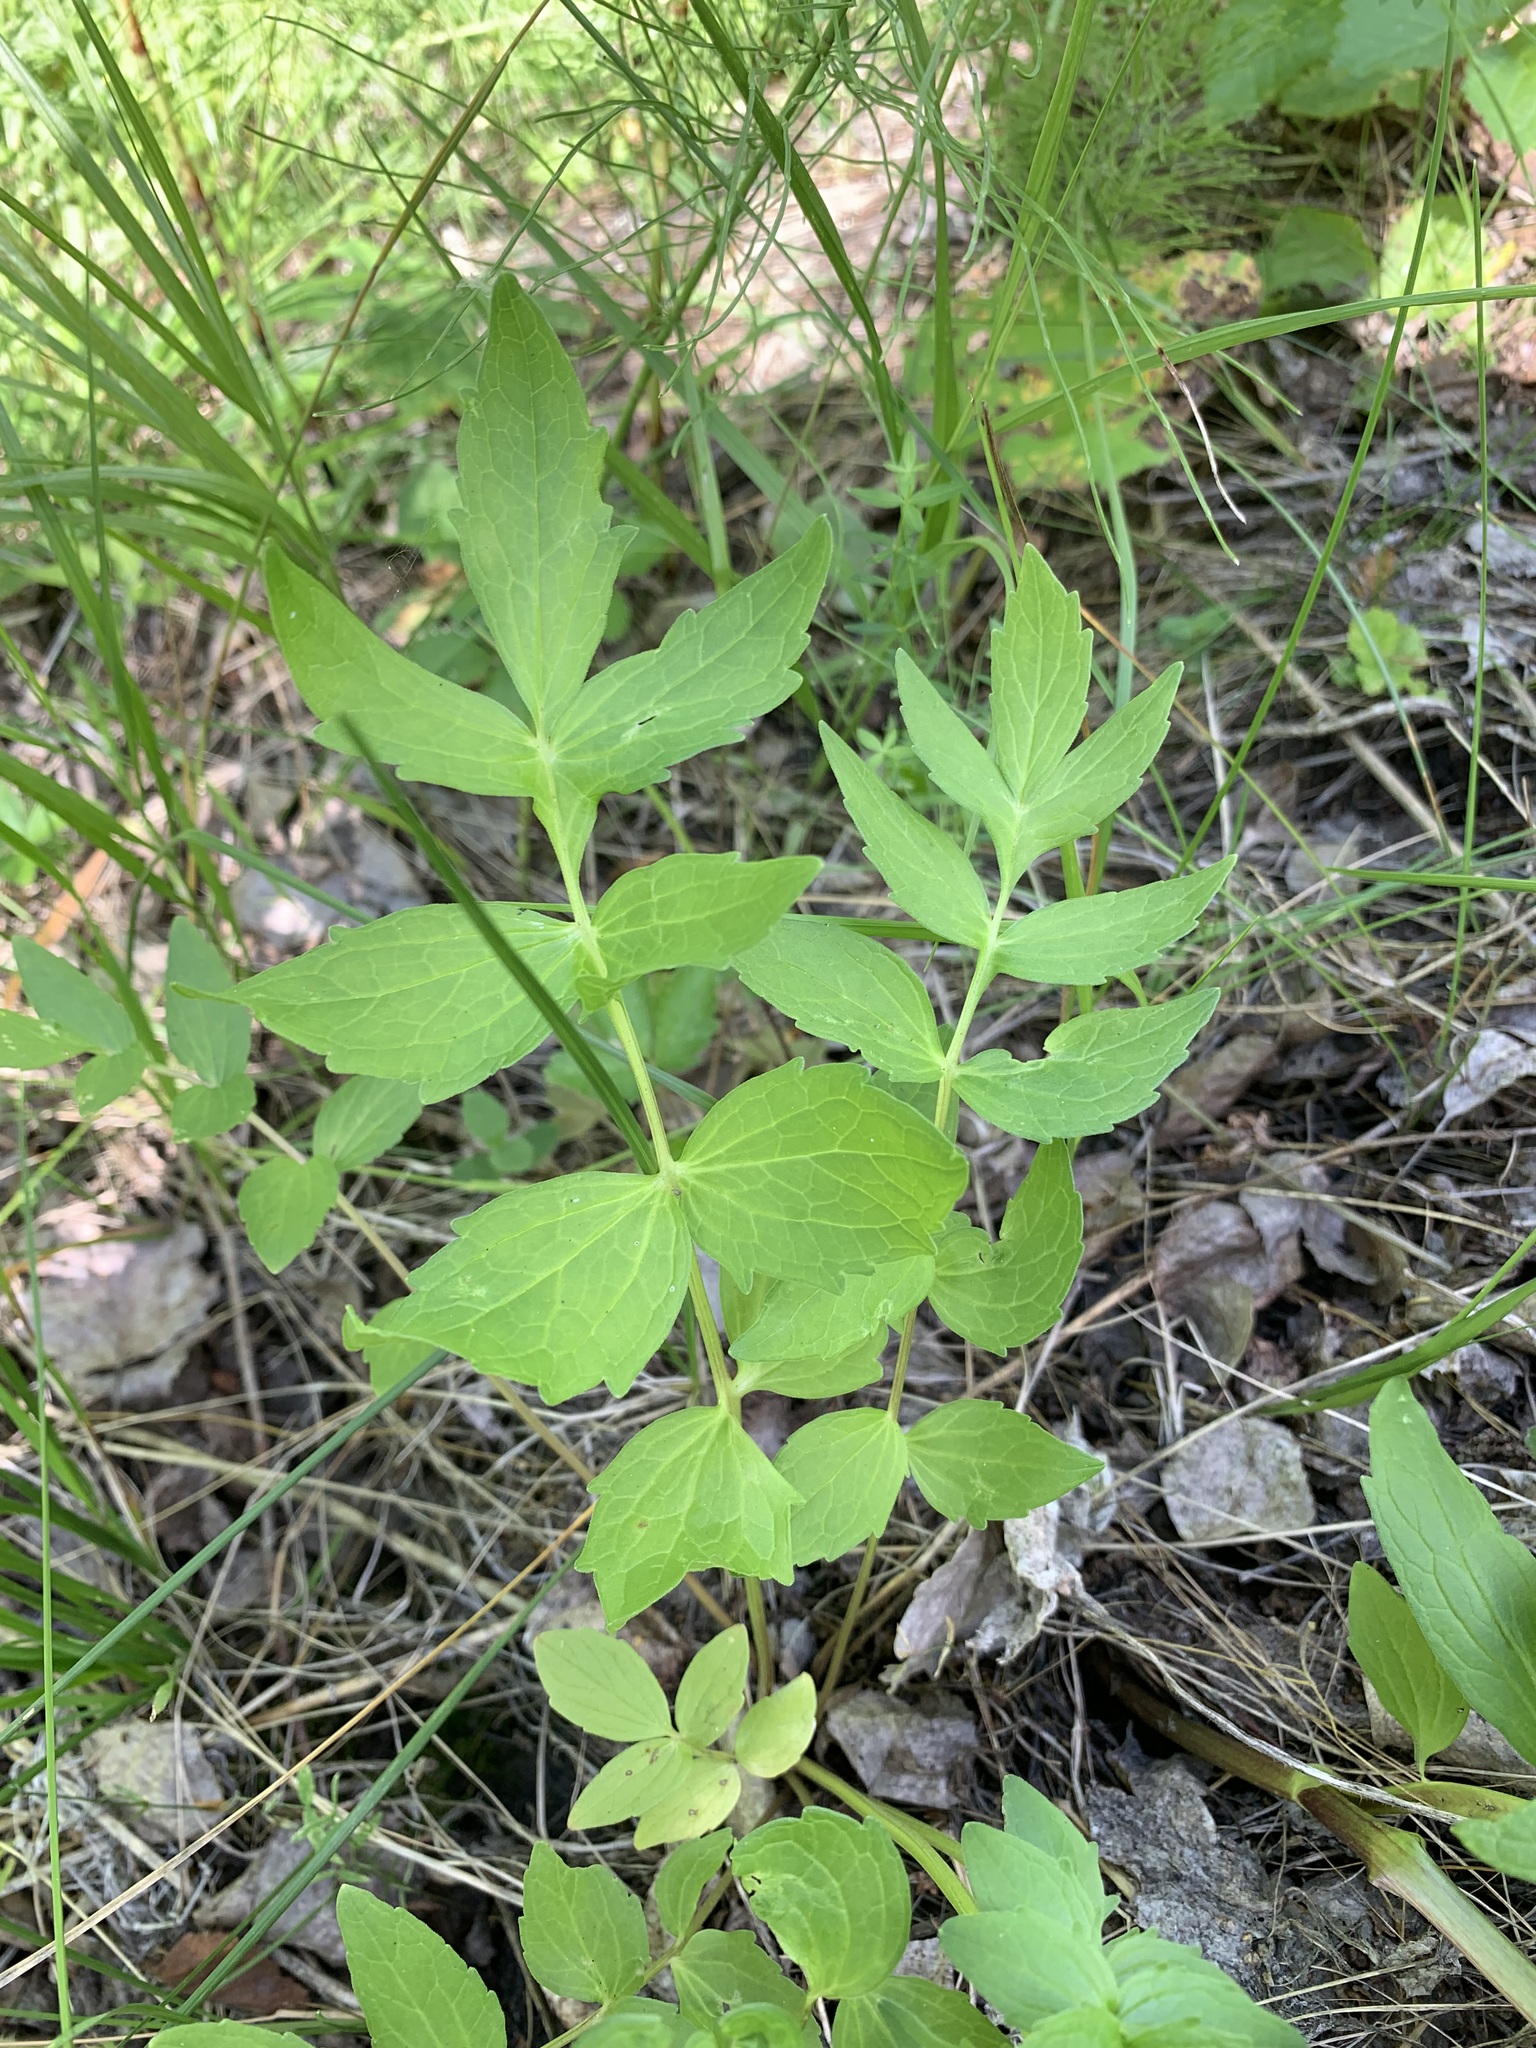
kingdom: Plantae
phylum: Tracheophyta
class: Magnoliopsida
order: Dipsacales
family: Caprifoliaceae
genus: Valeriana
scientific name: Valeriana wolgensis
